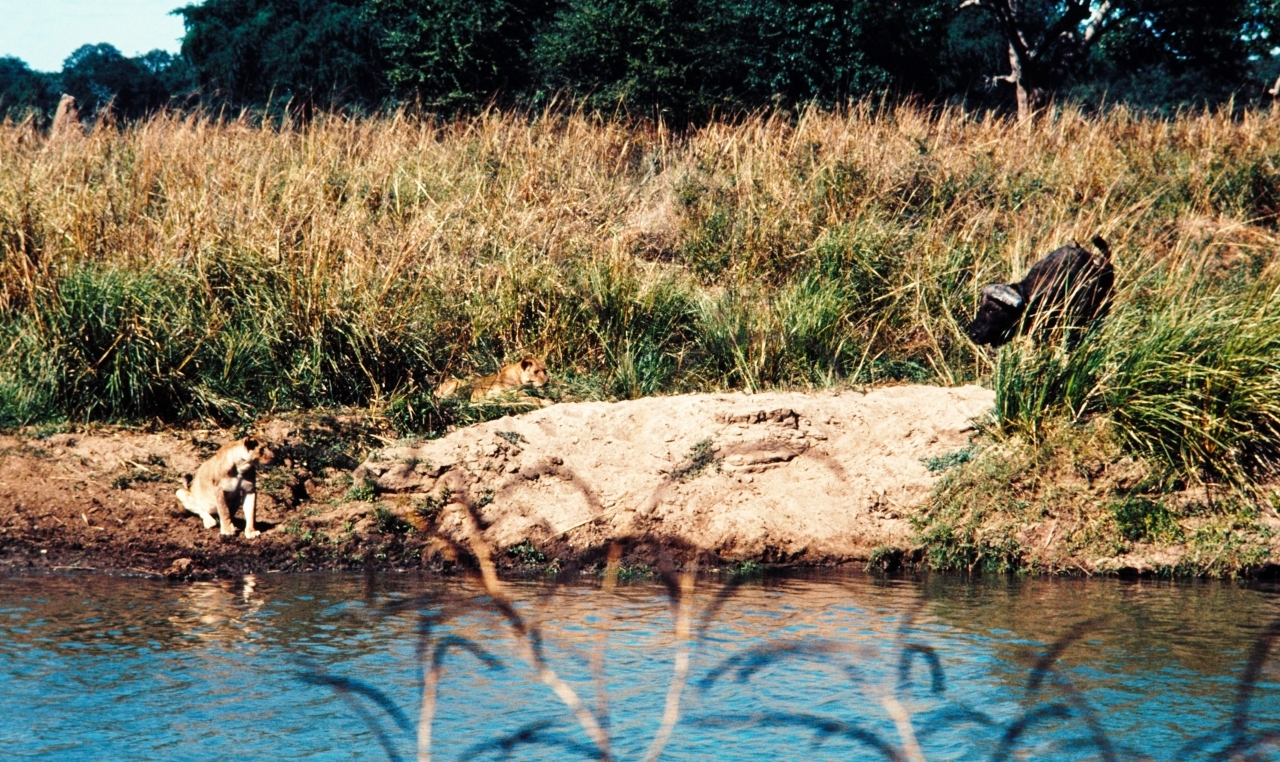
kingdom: Animalia
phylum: Chordata
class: Mammalia
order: Artiodactyla
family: Bovidae
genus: Syncerus
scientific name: Syncerus caffer
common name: African buffalo
